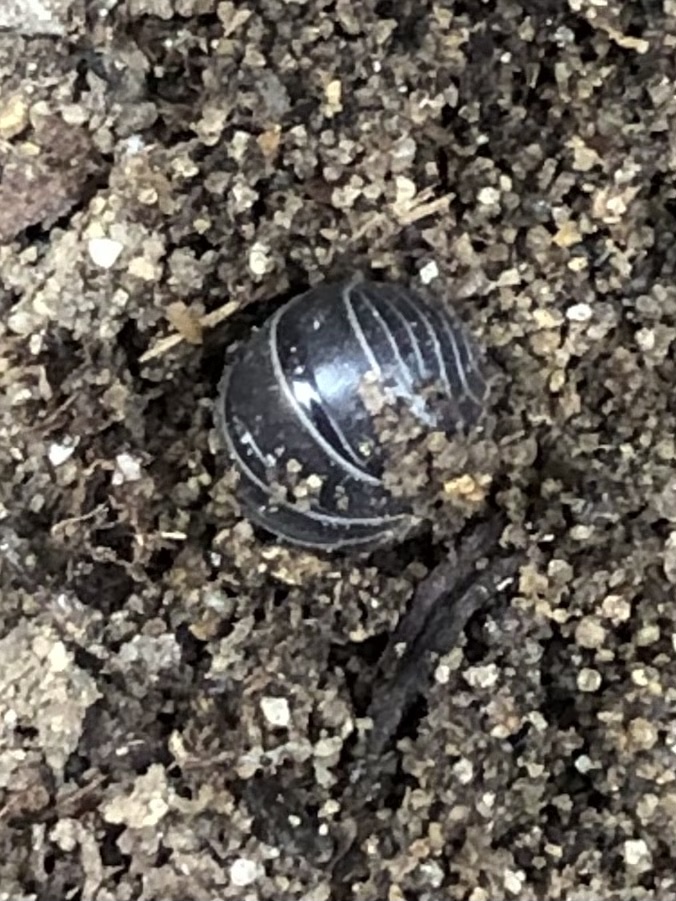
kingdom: Animalia
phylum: Arthropoda
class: Malacostraca
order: Isopoda
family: Armadillidiidae
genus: Armadillidium
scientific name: Armadillidium vulgare
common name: Common pill woodlouse
